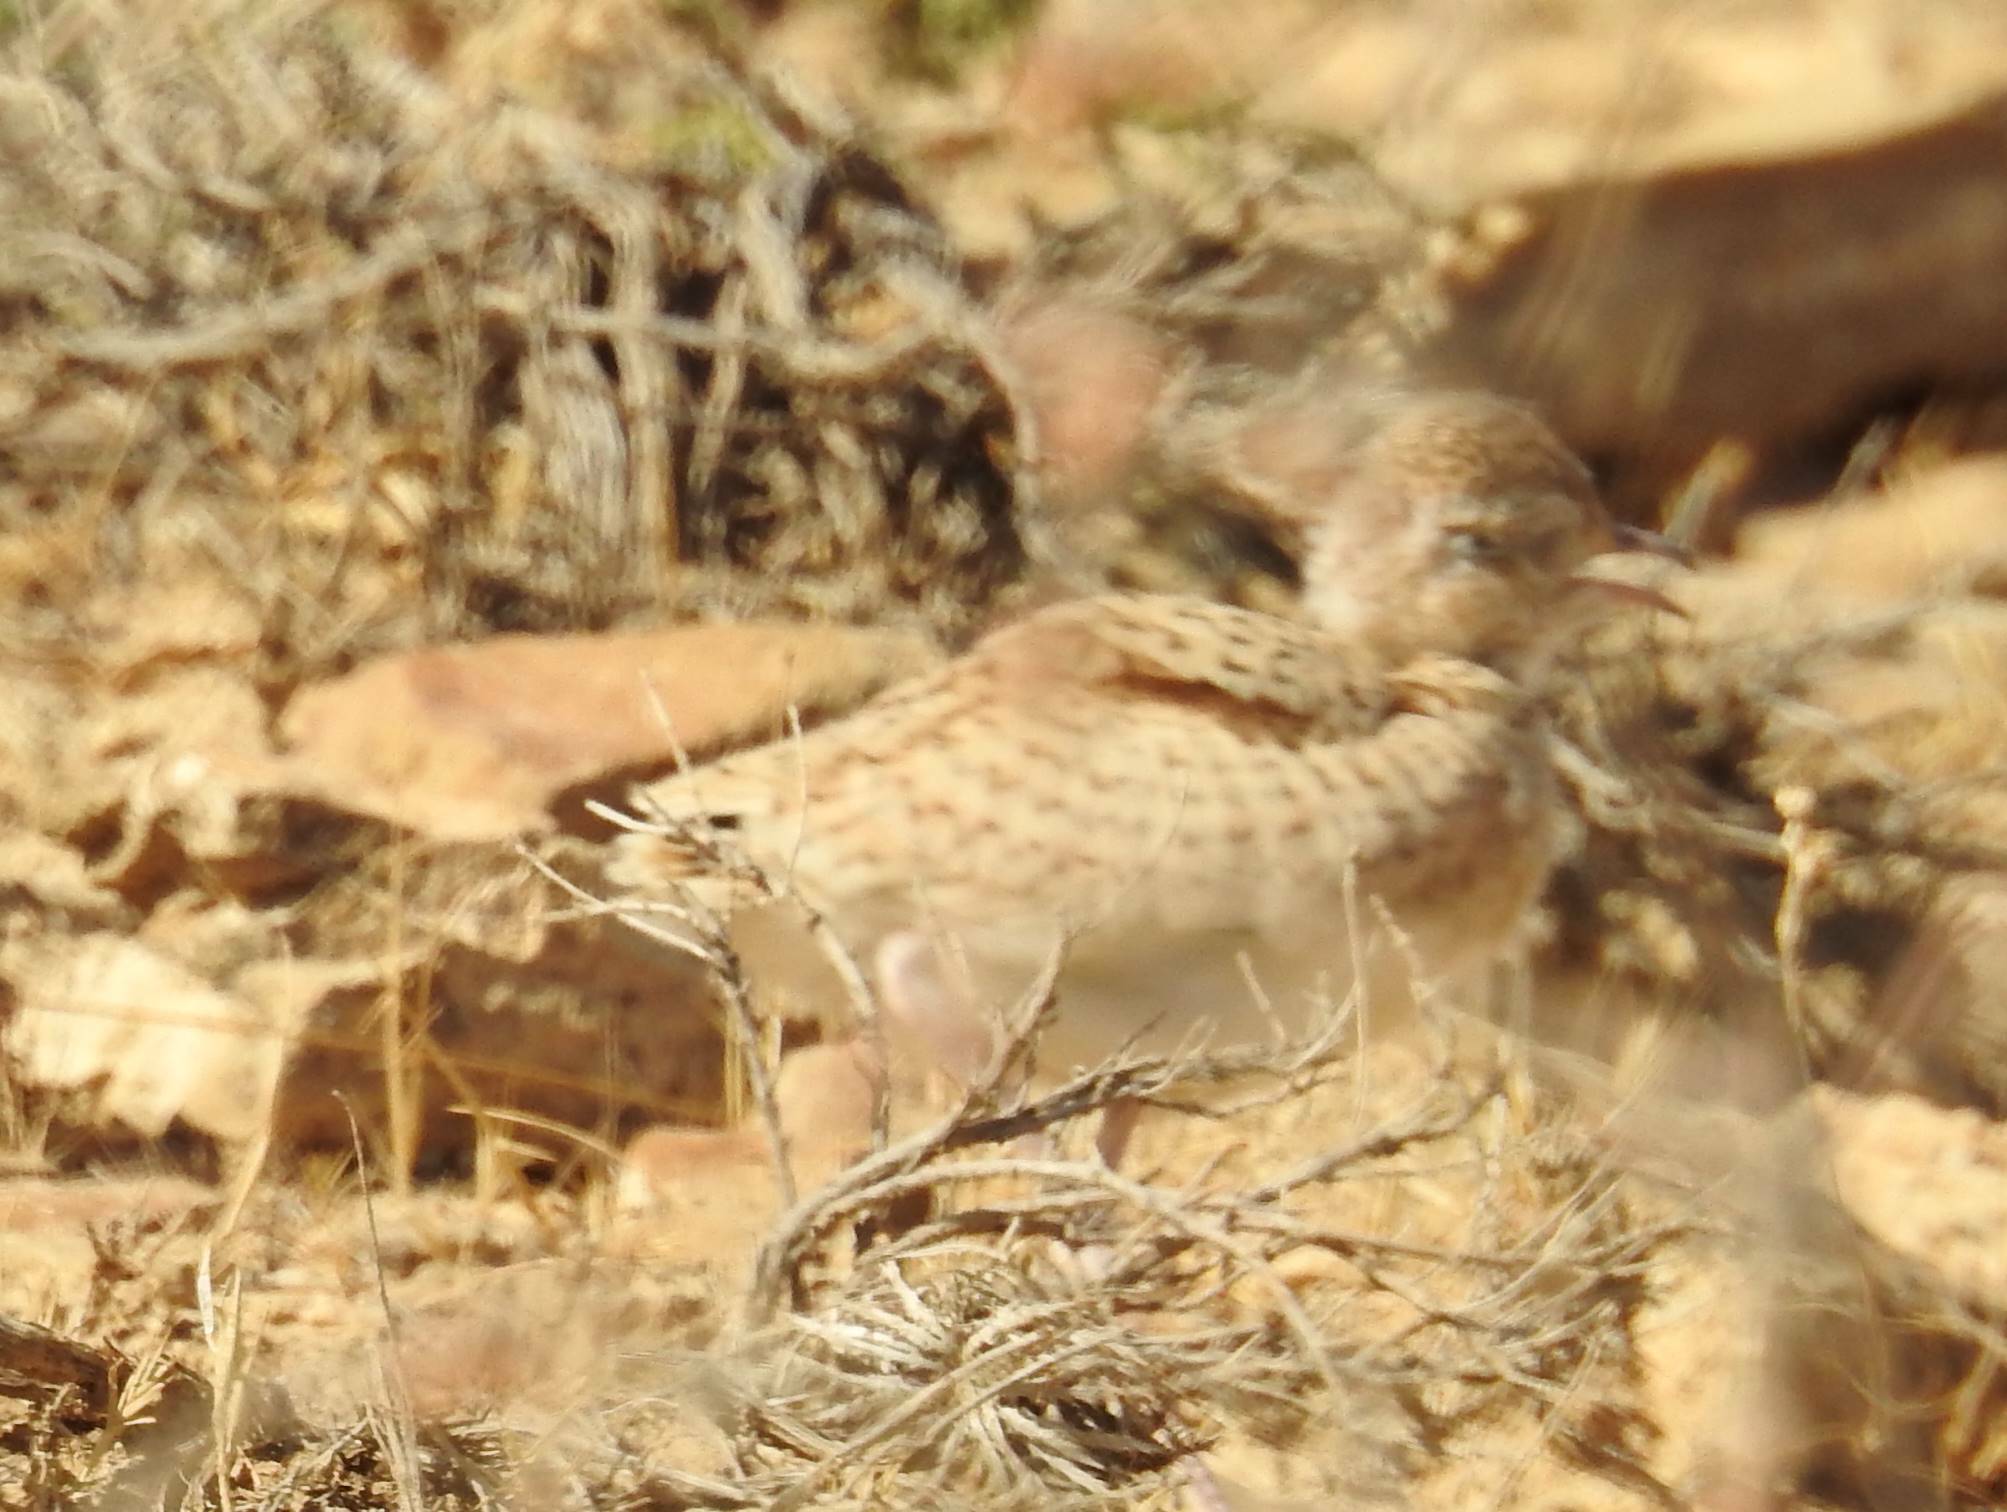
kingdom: Animalia
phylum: Chordata
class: Aves
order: Charadriiformes
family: Glareolidae
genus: Cursorius
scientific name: Cursorius cursor
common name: Cream-colored courser
